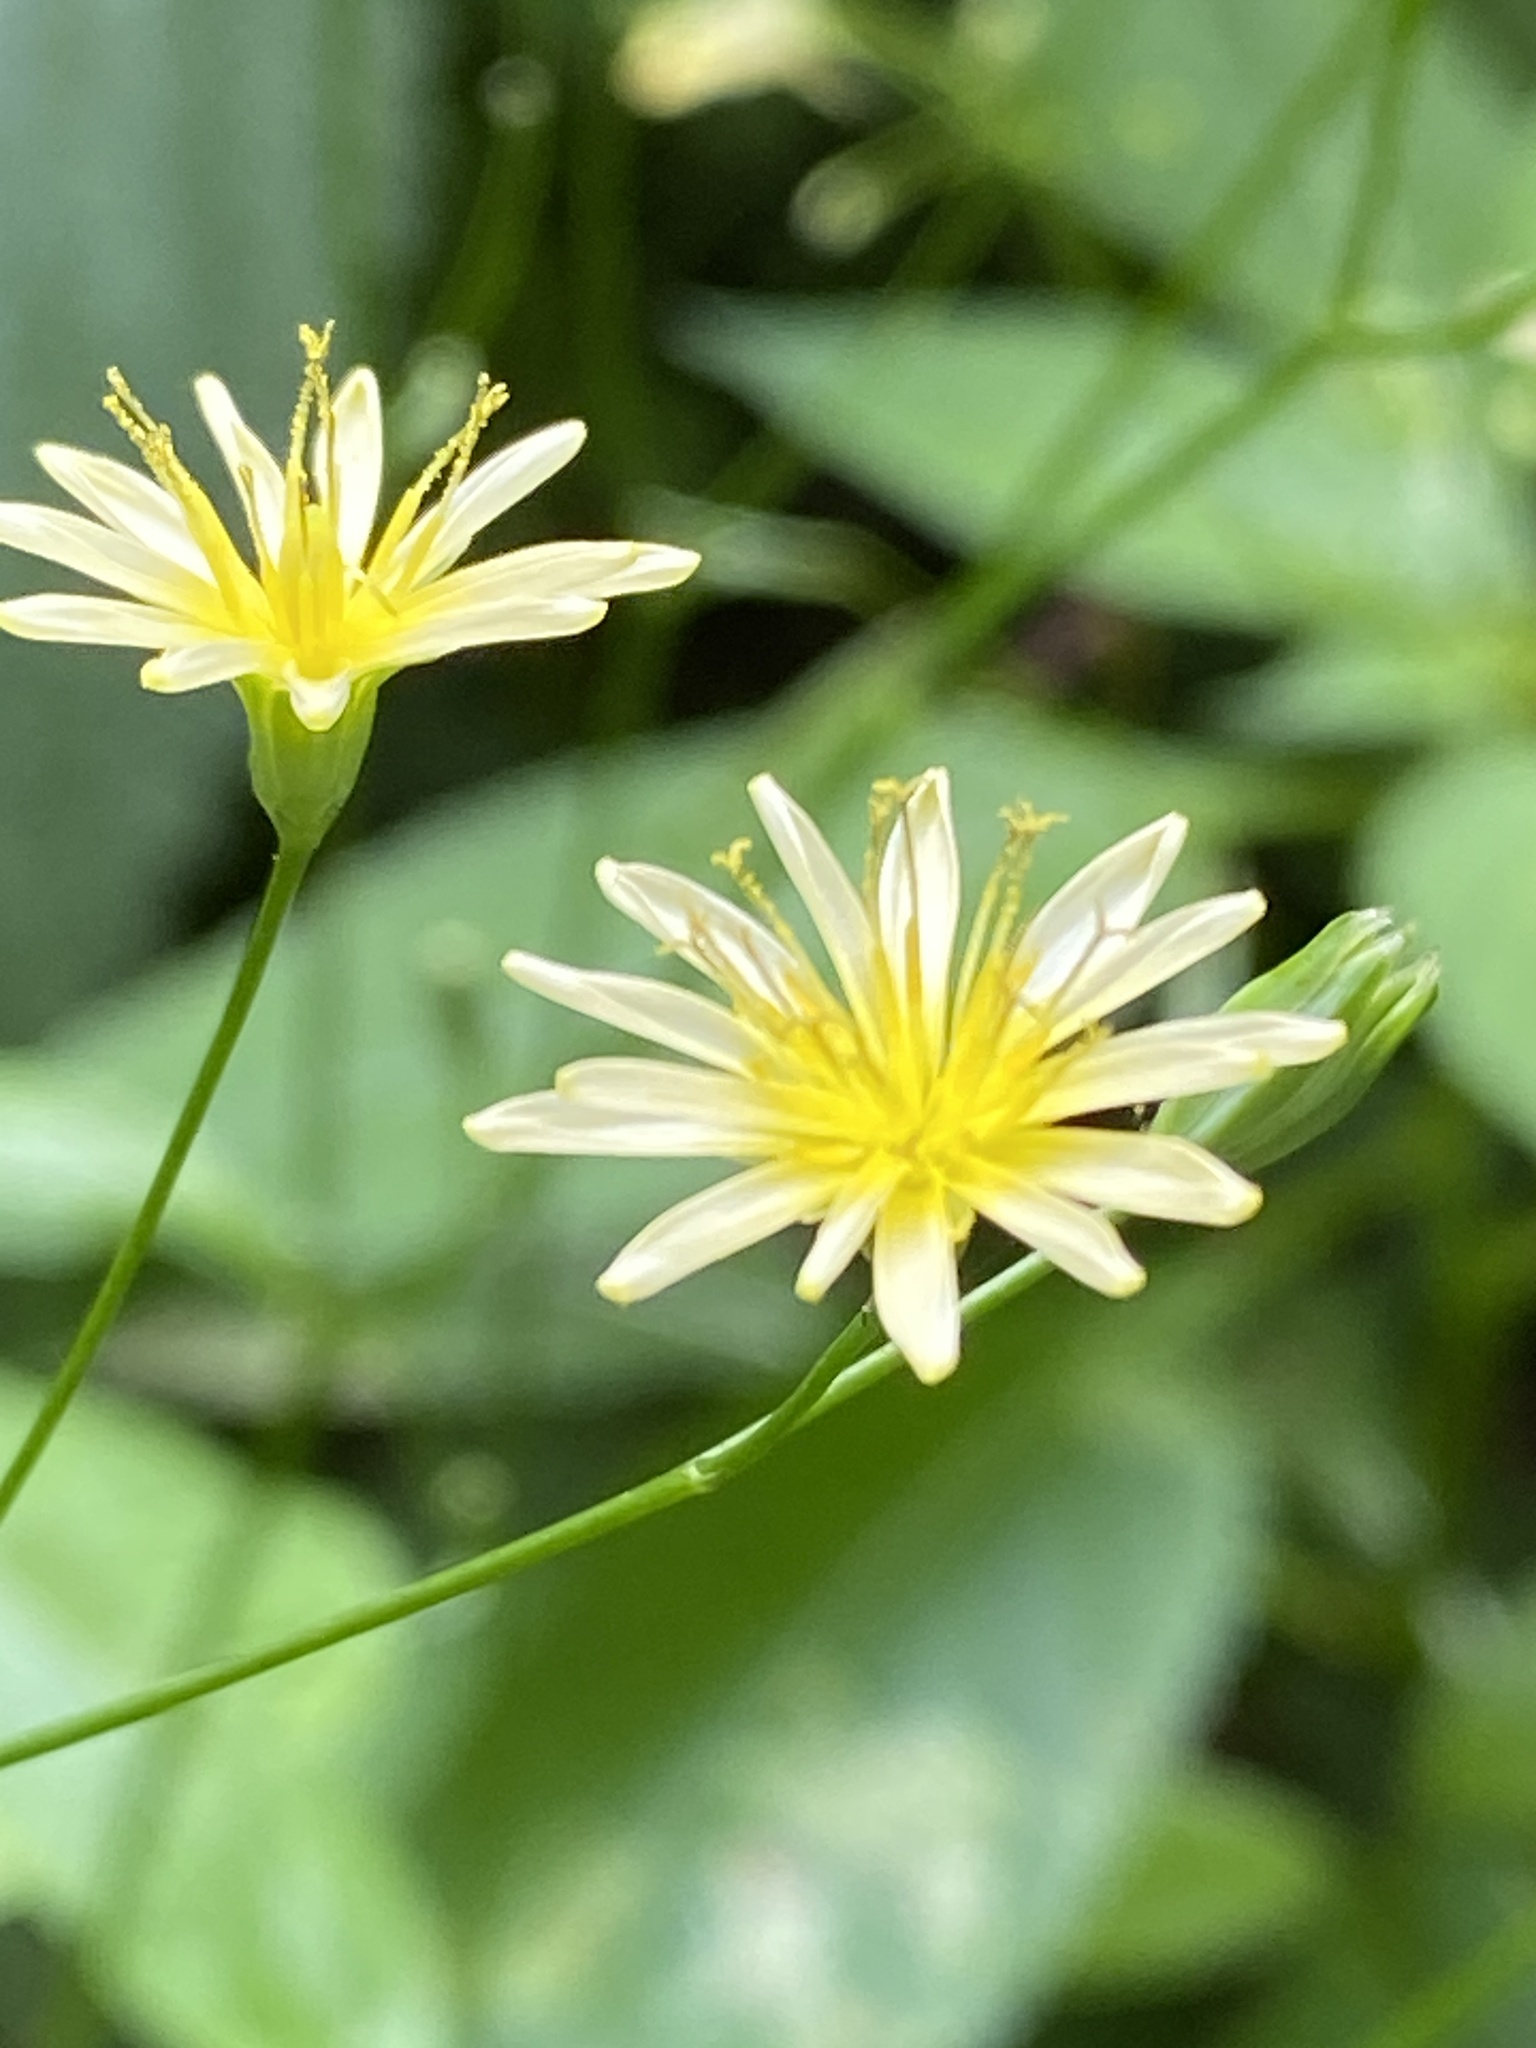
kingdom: Plantae
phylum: Tracheophyta
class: Magnoliopsida
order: Asterales
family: Asteraceae
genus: Lapsana
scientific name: Lapsana communis
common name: Nipplewort
